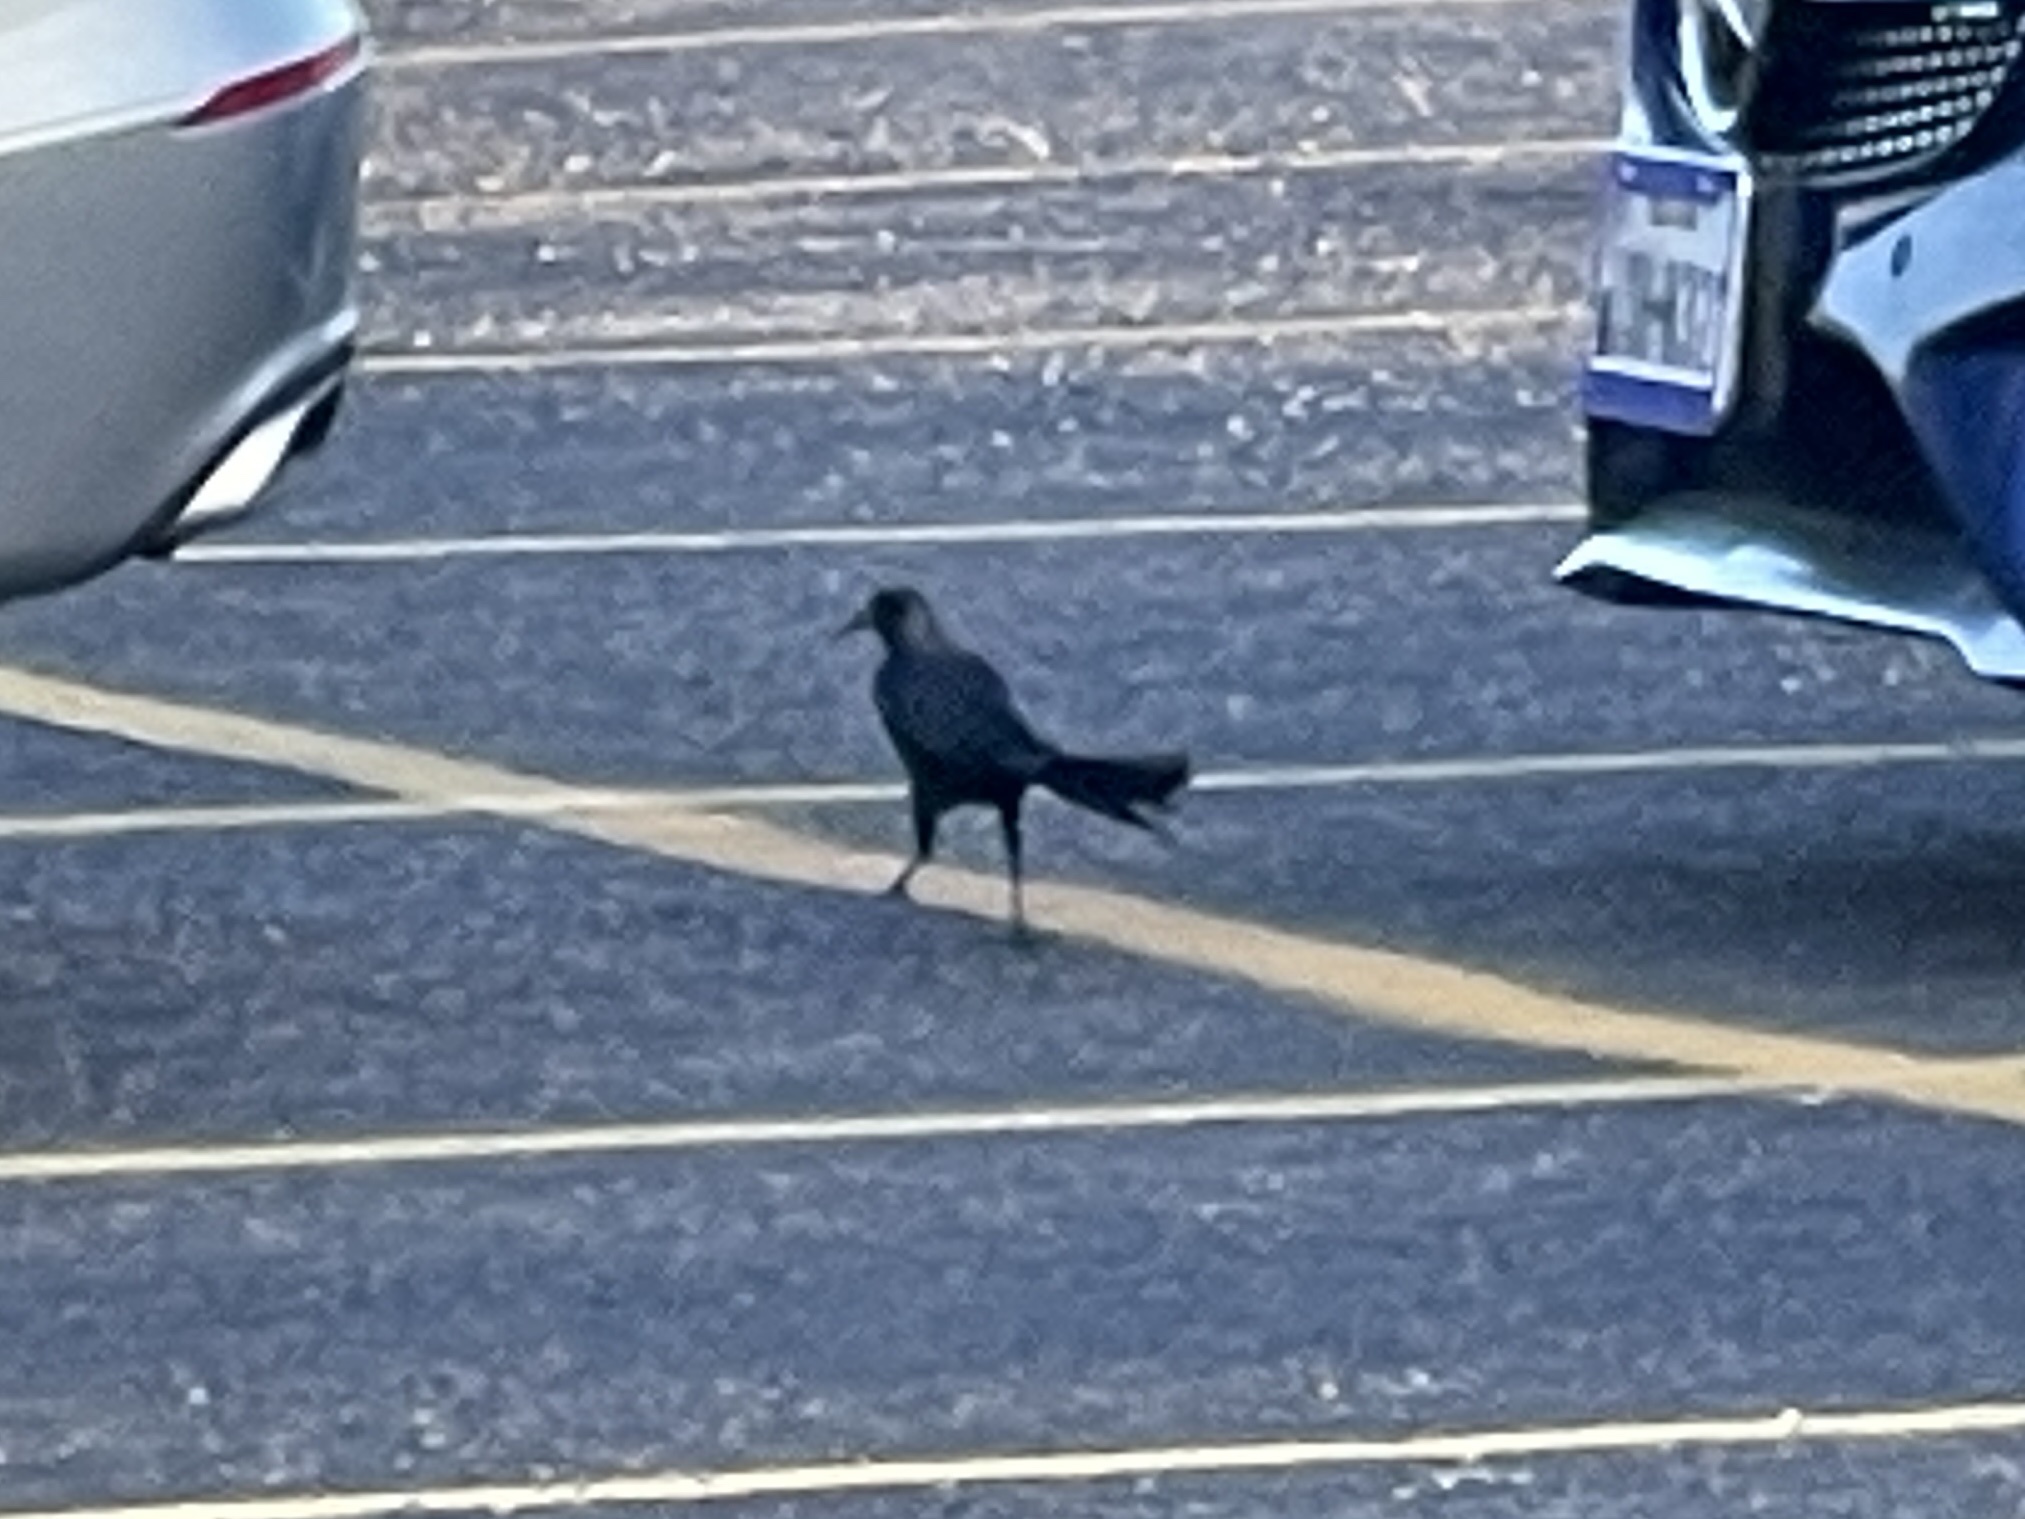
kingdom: Animalia
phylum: Chordata
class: Aves
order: Passeriformes
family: Icteridae
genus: Quiscalus
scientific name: Quiscalus mexicanus
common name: Great-tailed grackle
